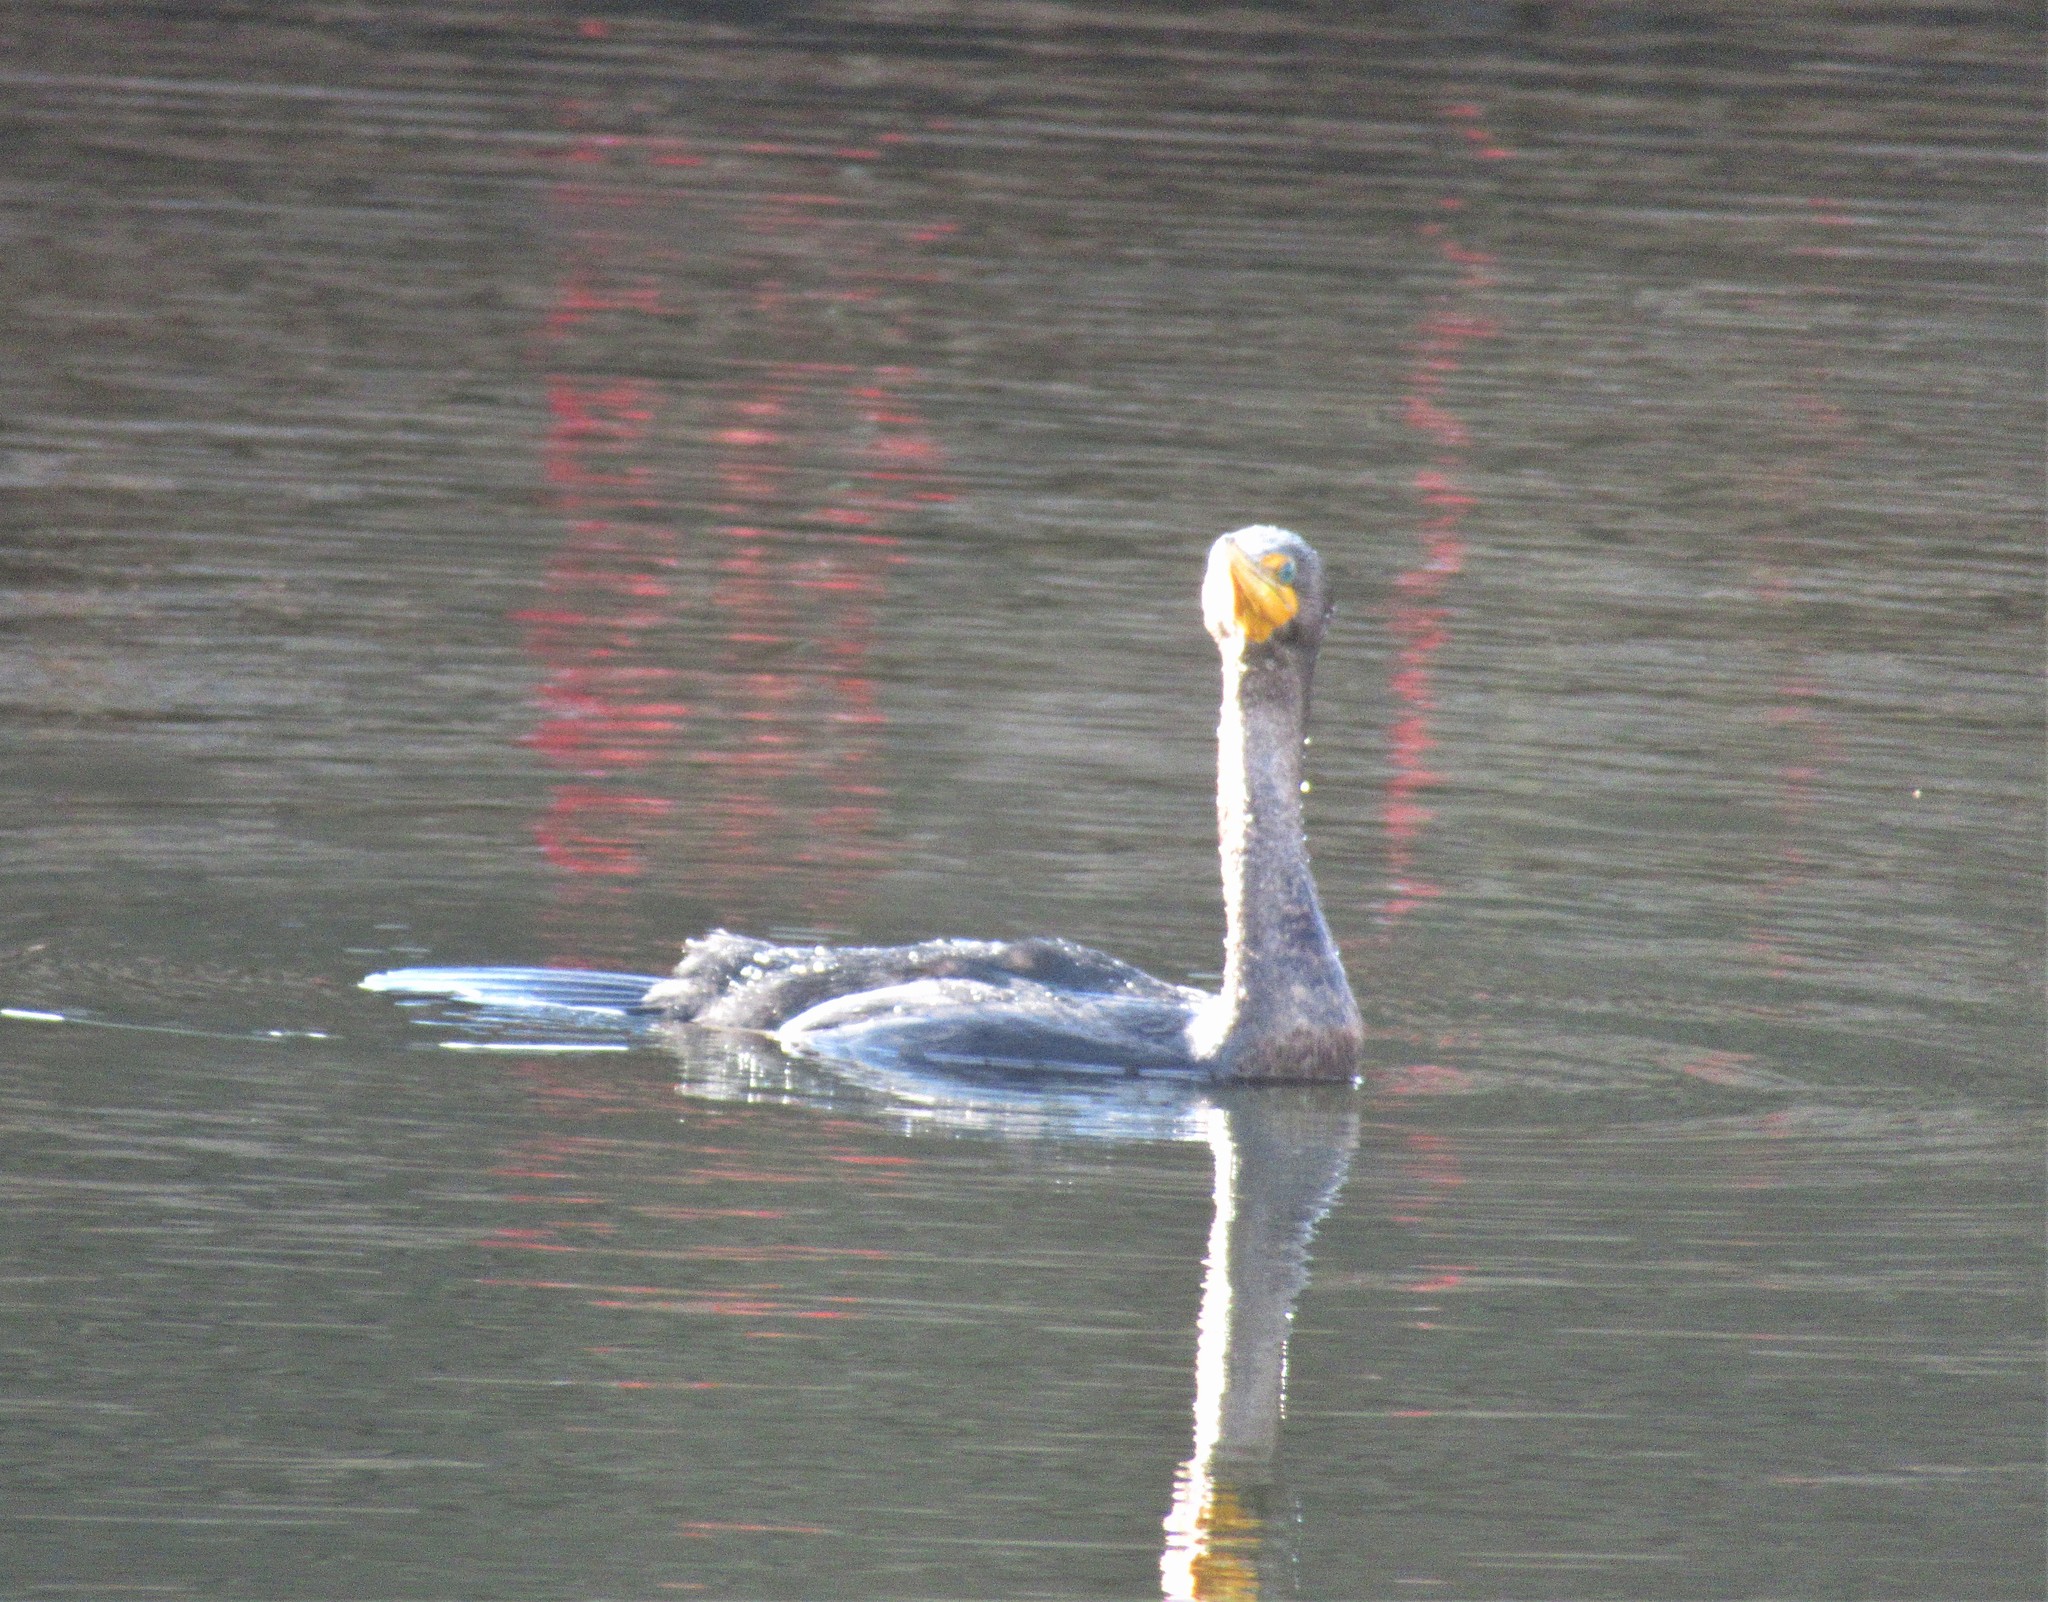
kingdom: Animalia
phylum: Chordata
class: Aves
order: Suliformes
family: Phalacrocoracidae
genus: Phalacrocorax
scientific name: Phalacrocorax auritus
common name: Double-crested cormorant
